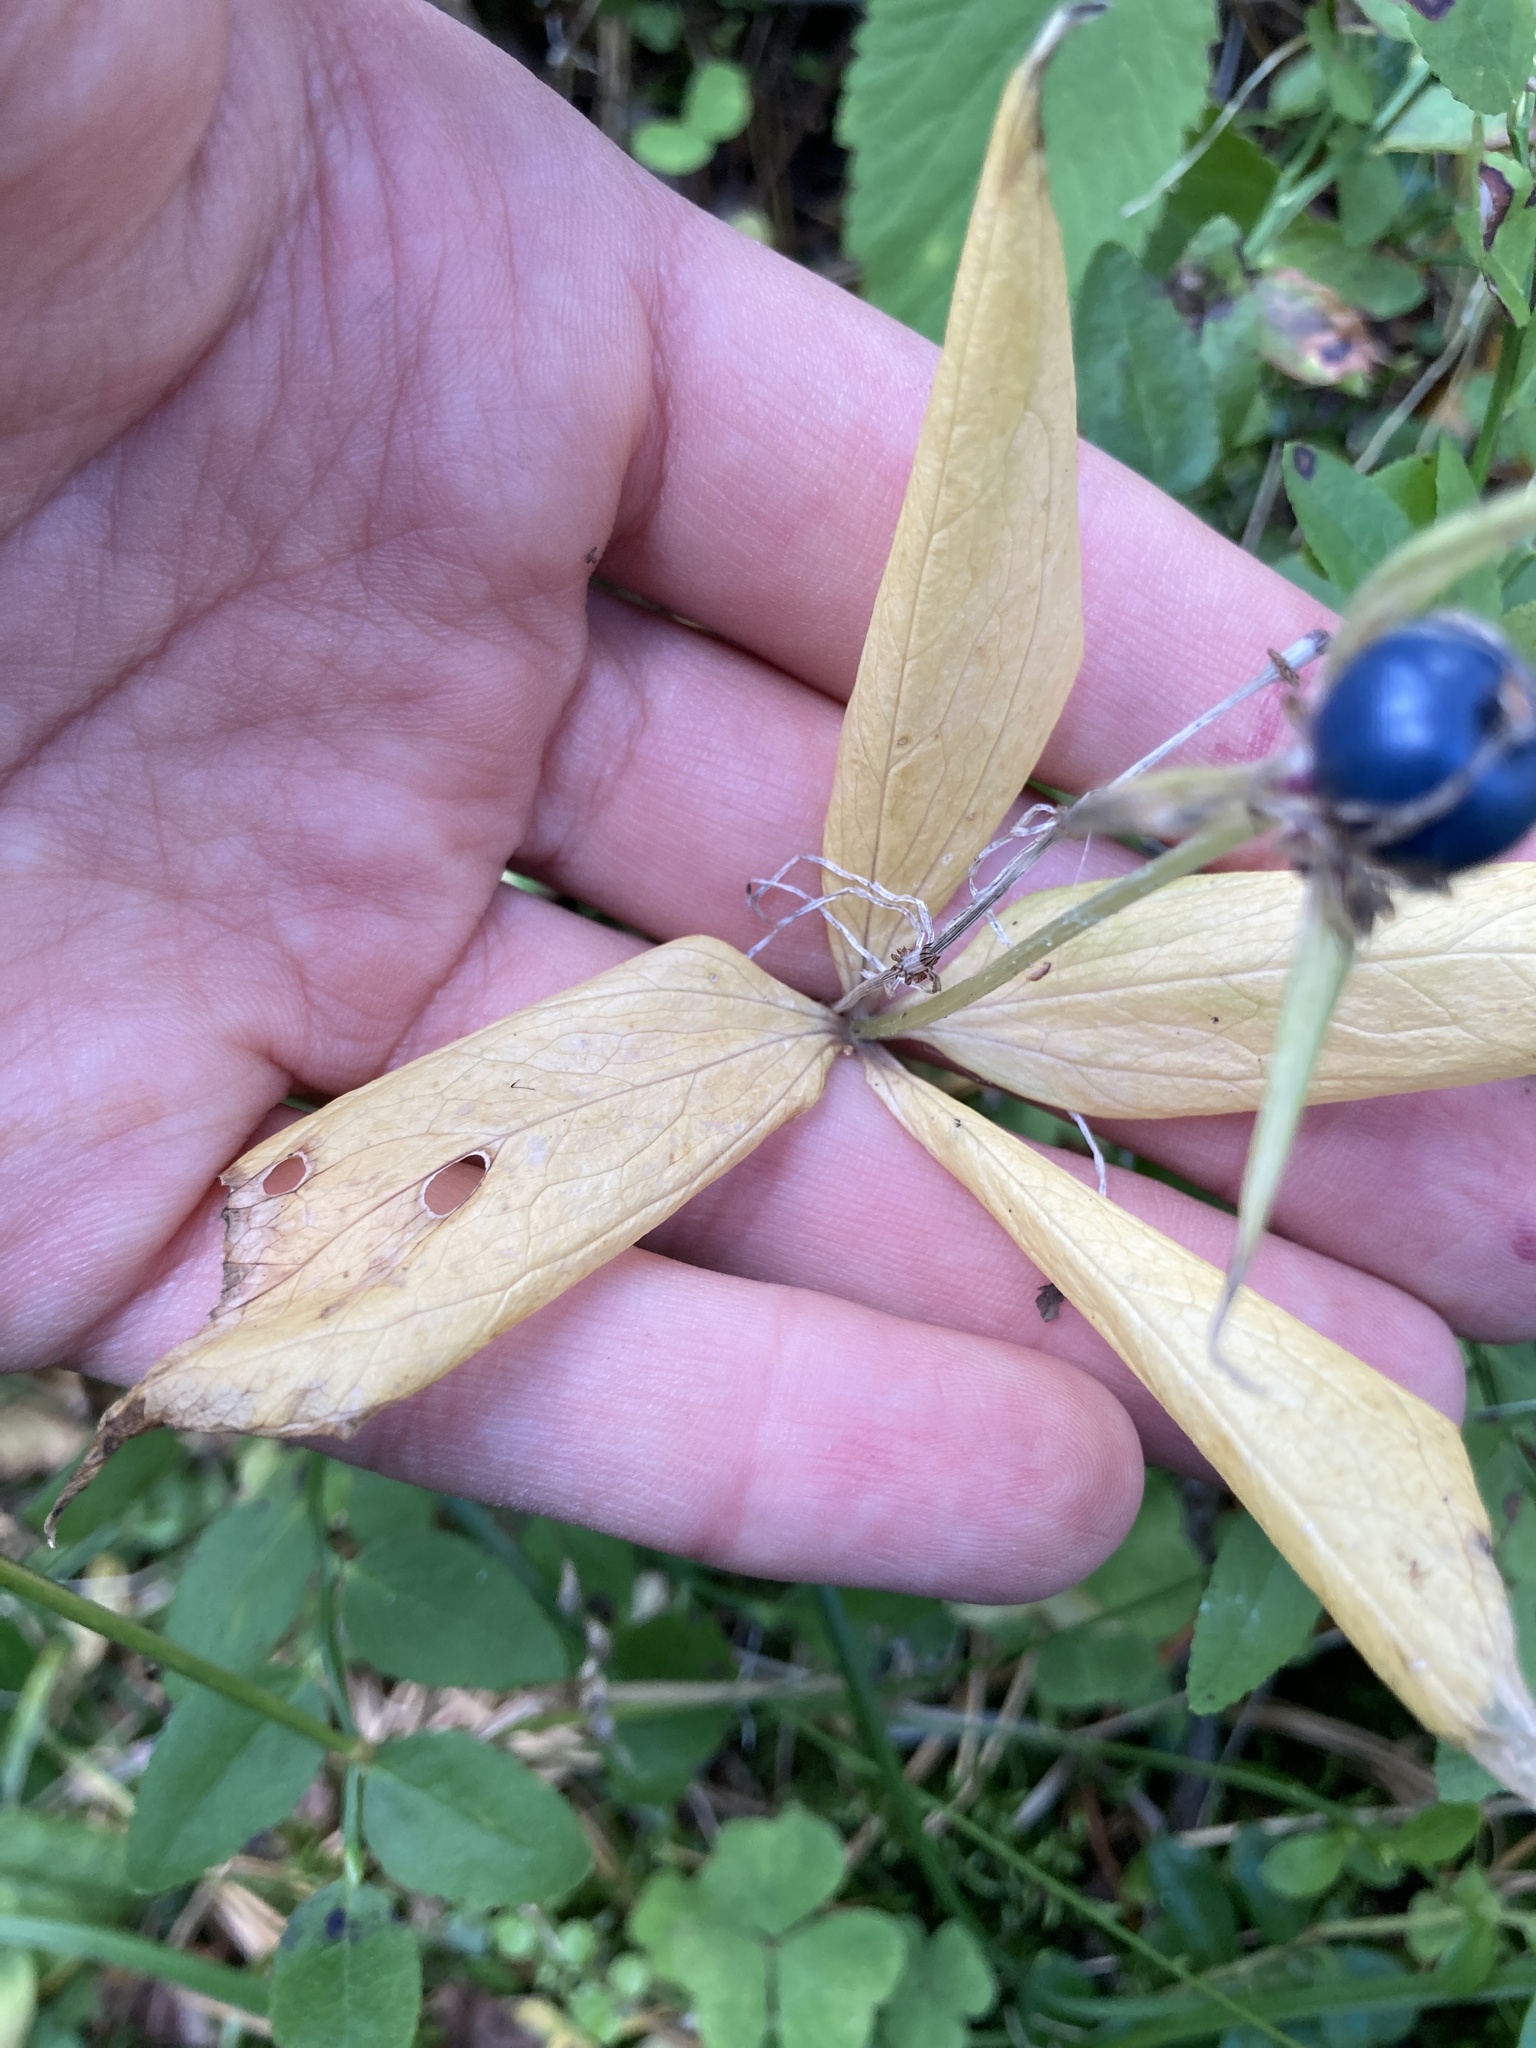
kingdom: Plantae
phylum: Tracheophyta
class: Liliopsida
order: Liliales
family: Melanthiaceae
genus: Paris
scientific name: Paris quadrifolia
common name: Herb-paris
